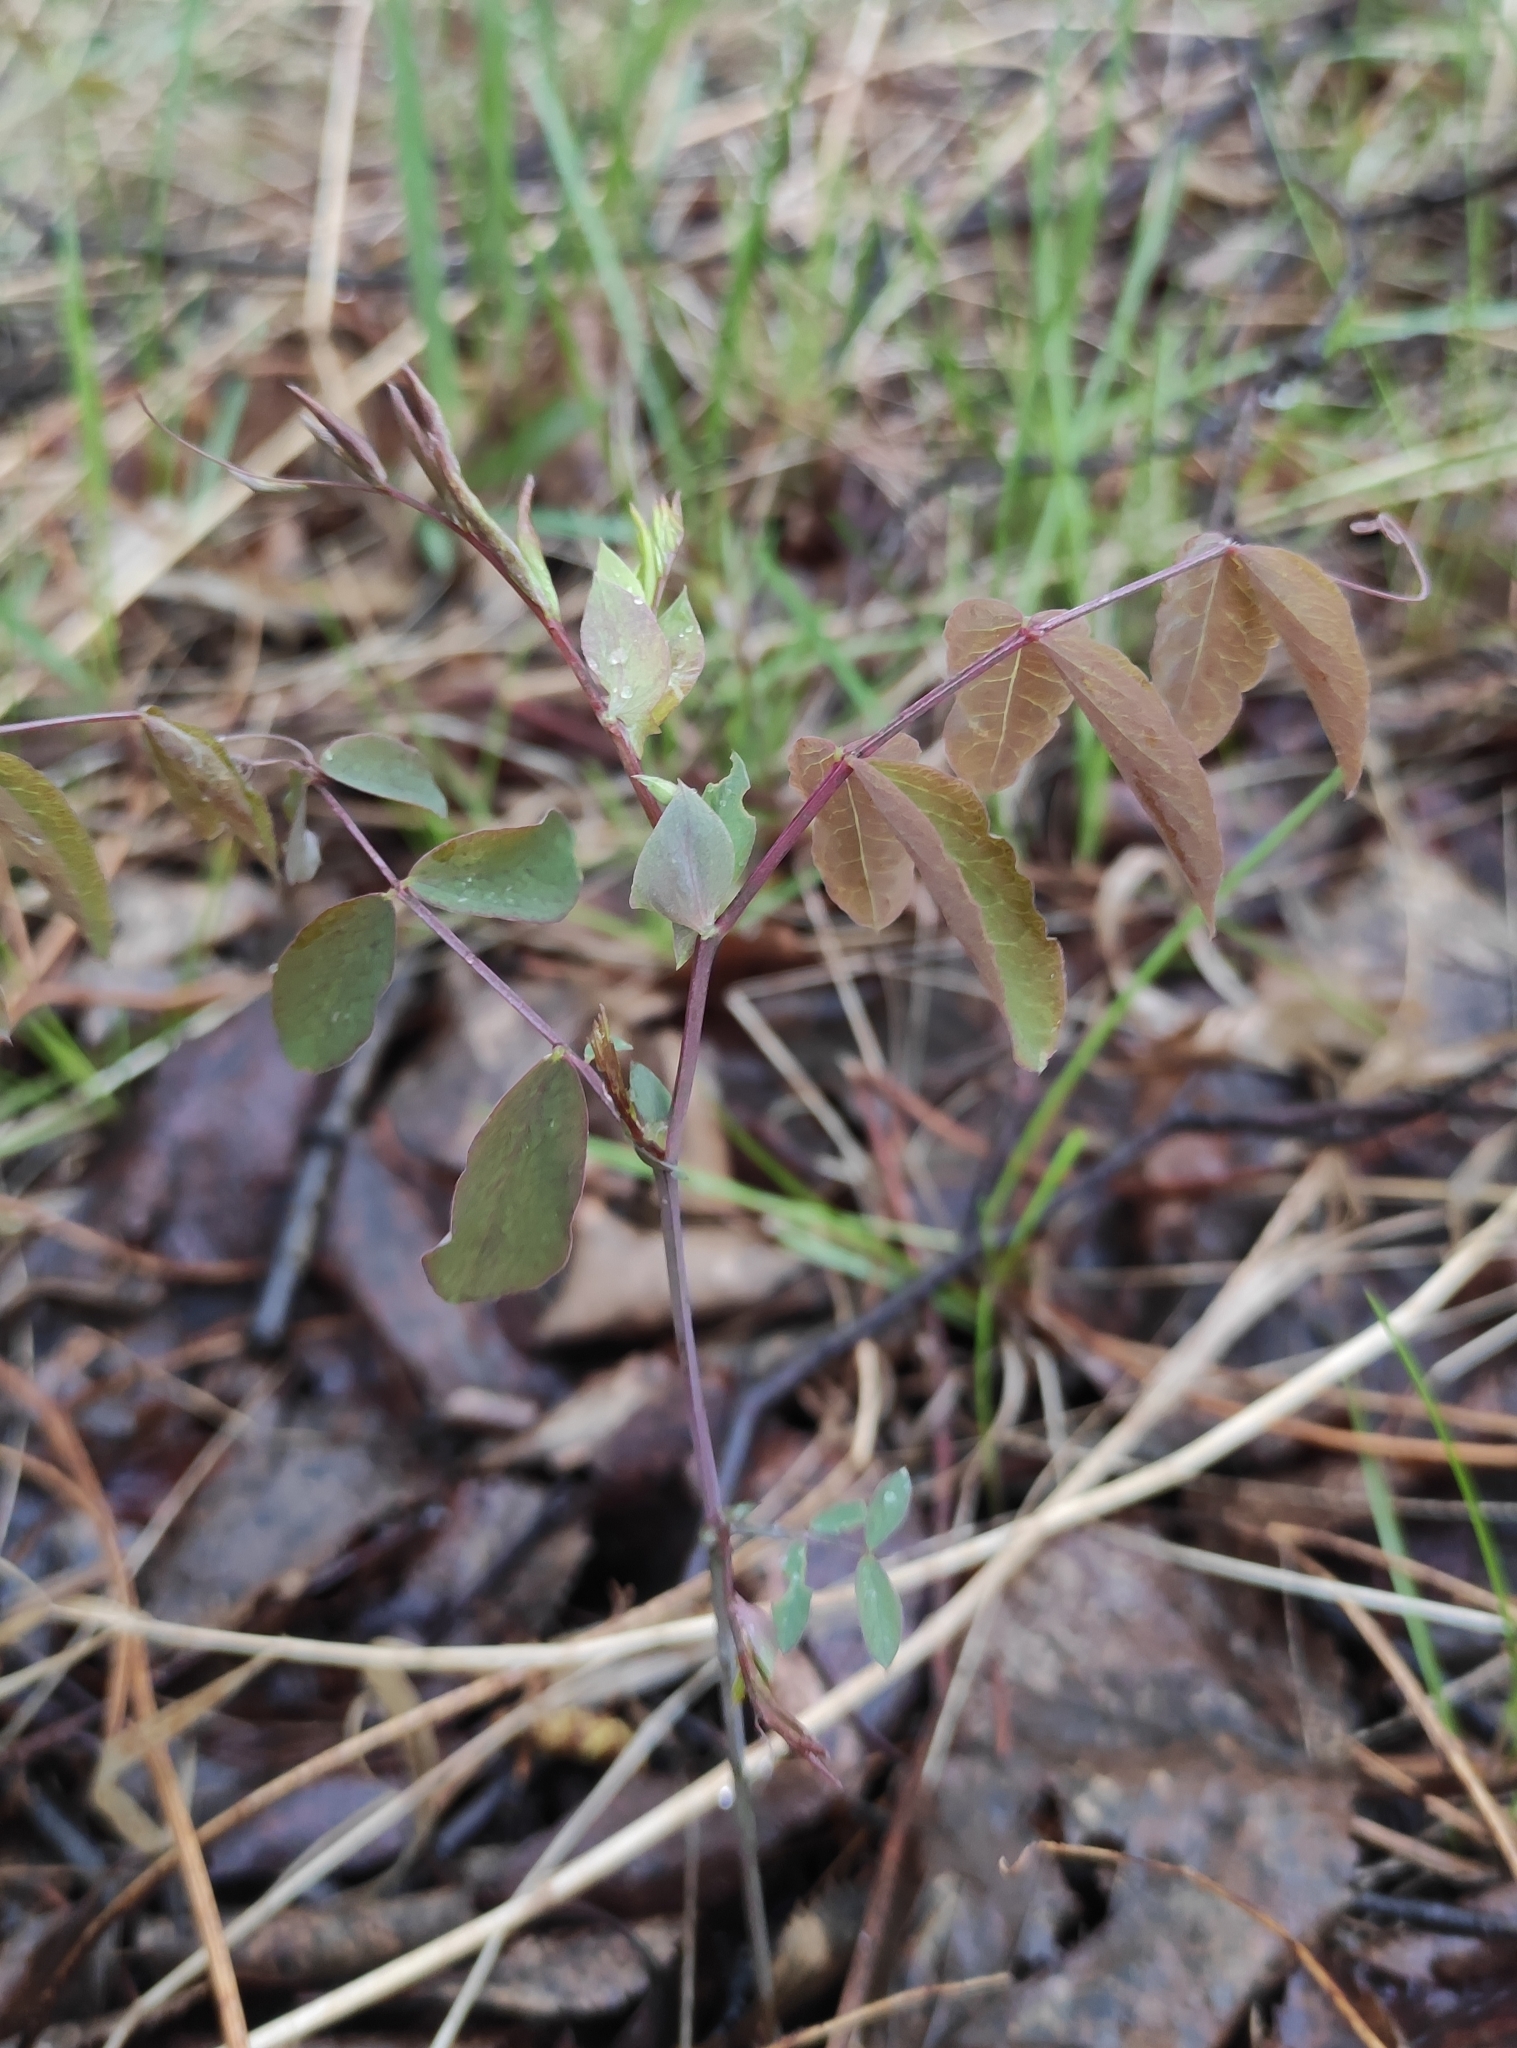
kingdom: Plantae
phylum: Tracheophyta
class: Magnoliopsida
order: Fabales
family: Fabaceae
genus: Lathyrus
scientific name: Lathyrus humilis
